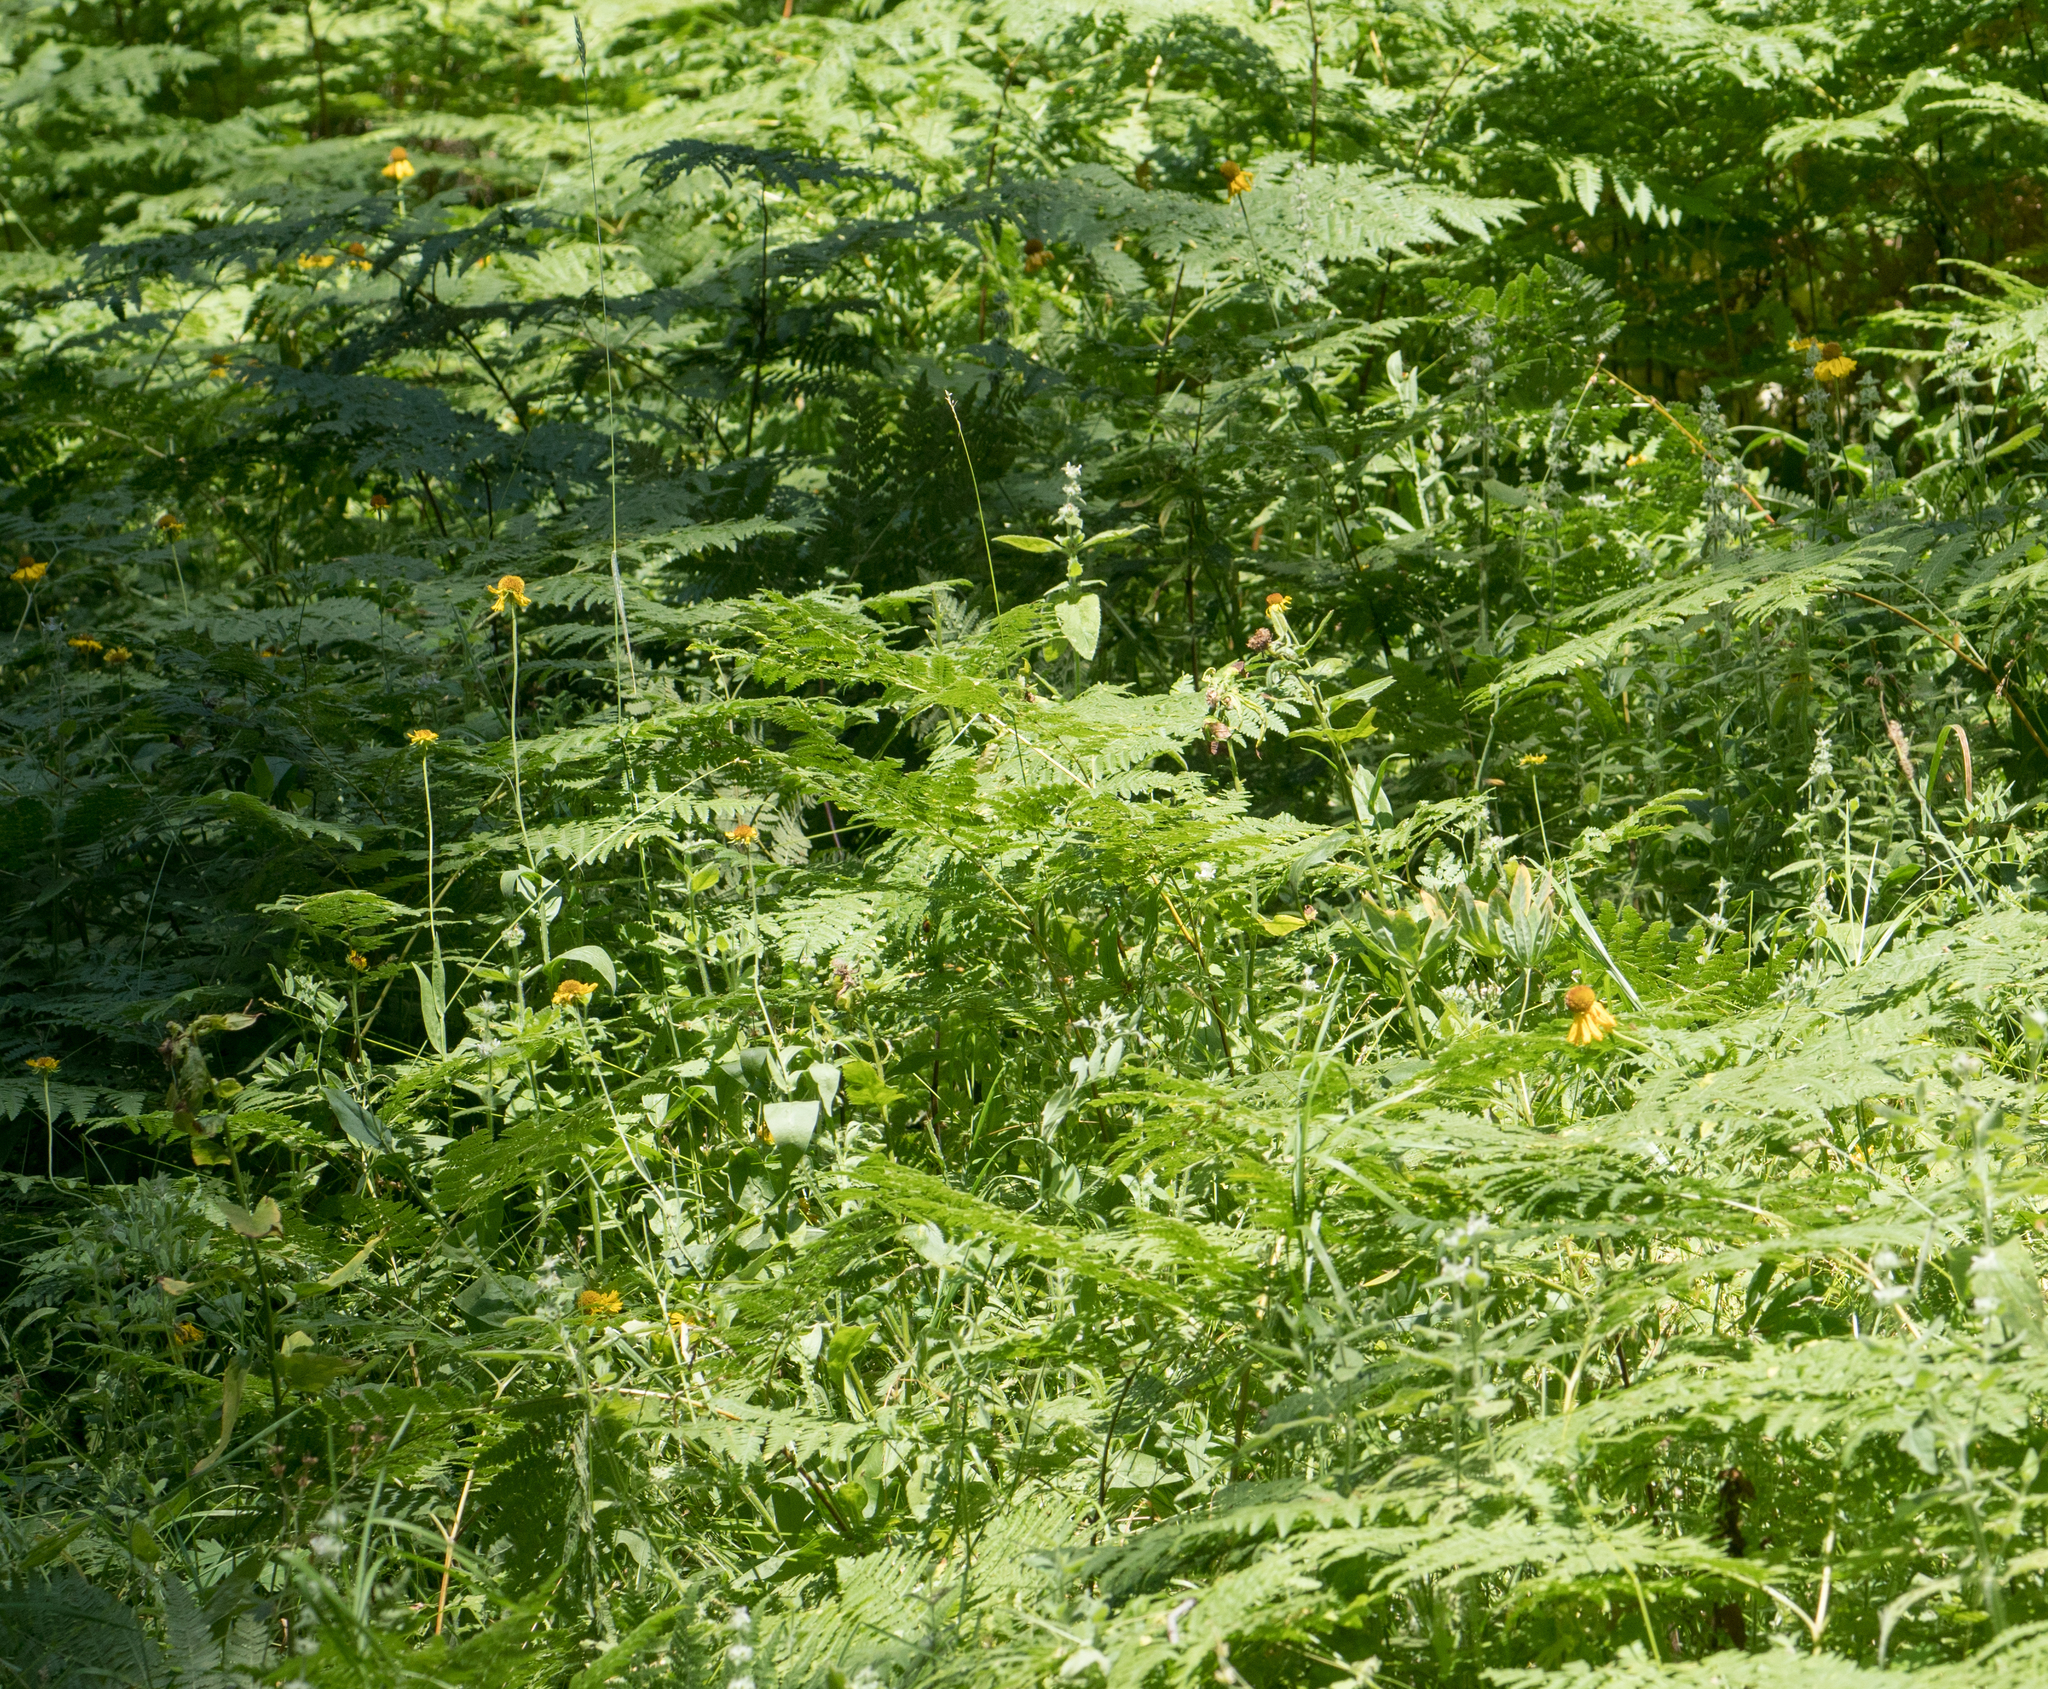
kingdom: Plantae
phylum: Tracheophyta
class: Magnoliopsida
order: Asterales
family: Asteraceae
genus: Helenium
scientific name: Helenium bigelovii
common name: Bigelow's sneezeweed
